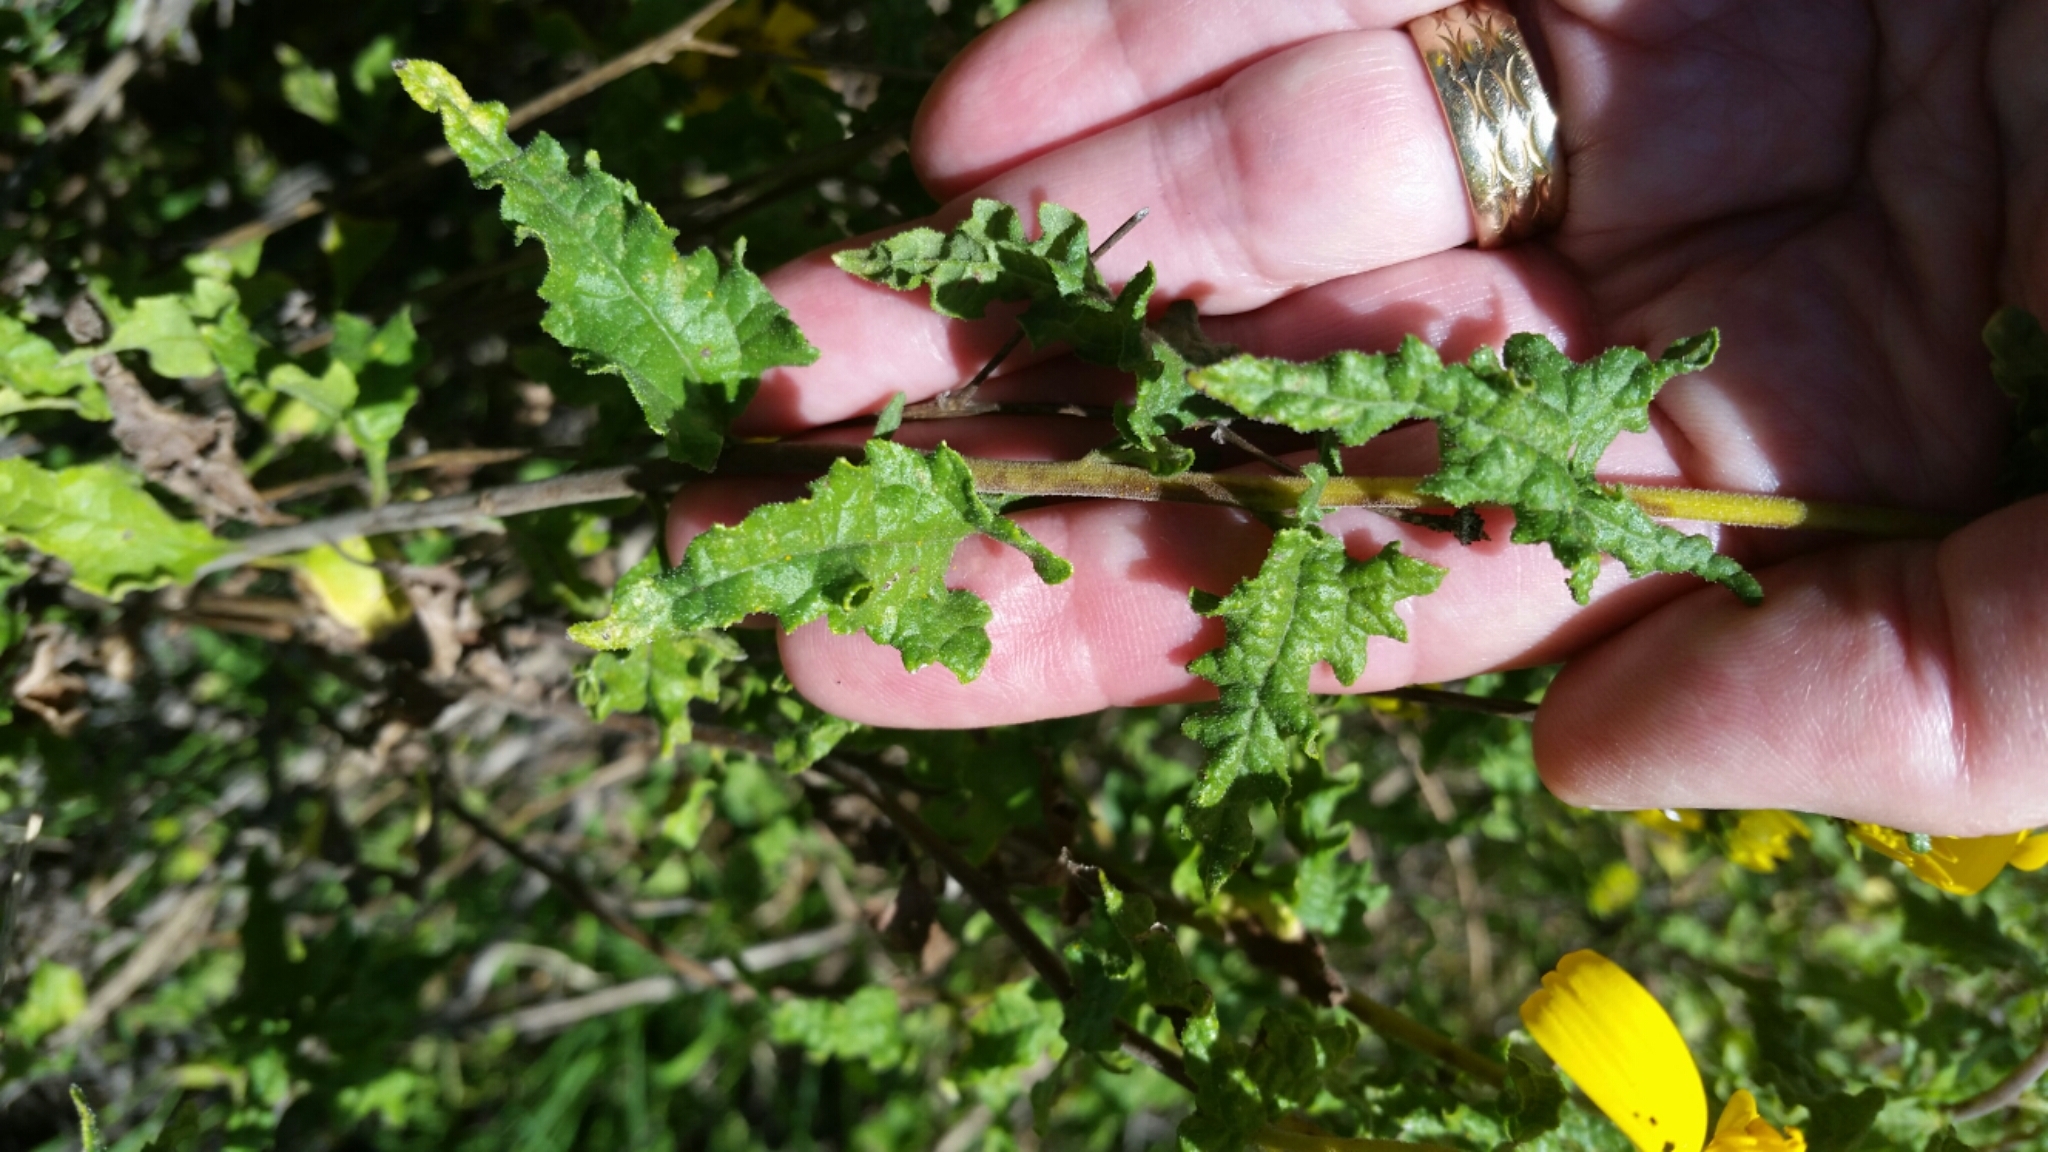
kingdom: Plantae
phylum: Tracheophyta
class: Magnoliopsida
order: Asterales
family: Asteraceae
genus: Bahiopsis
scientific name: Bahiopsis laciniata
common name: San diego county viguiera
